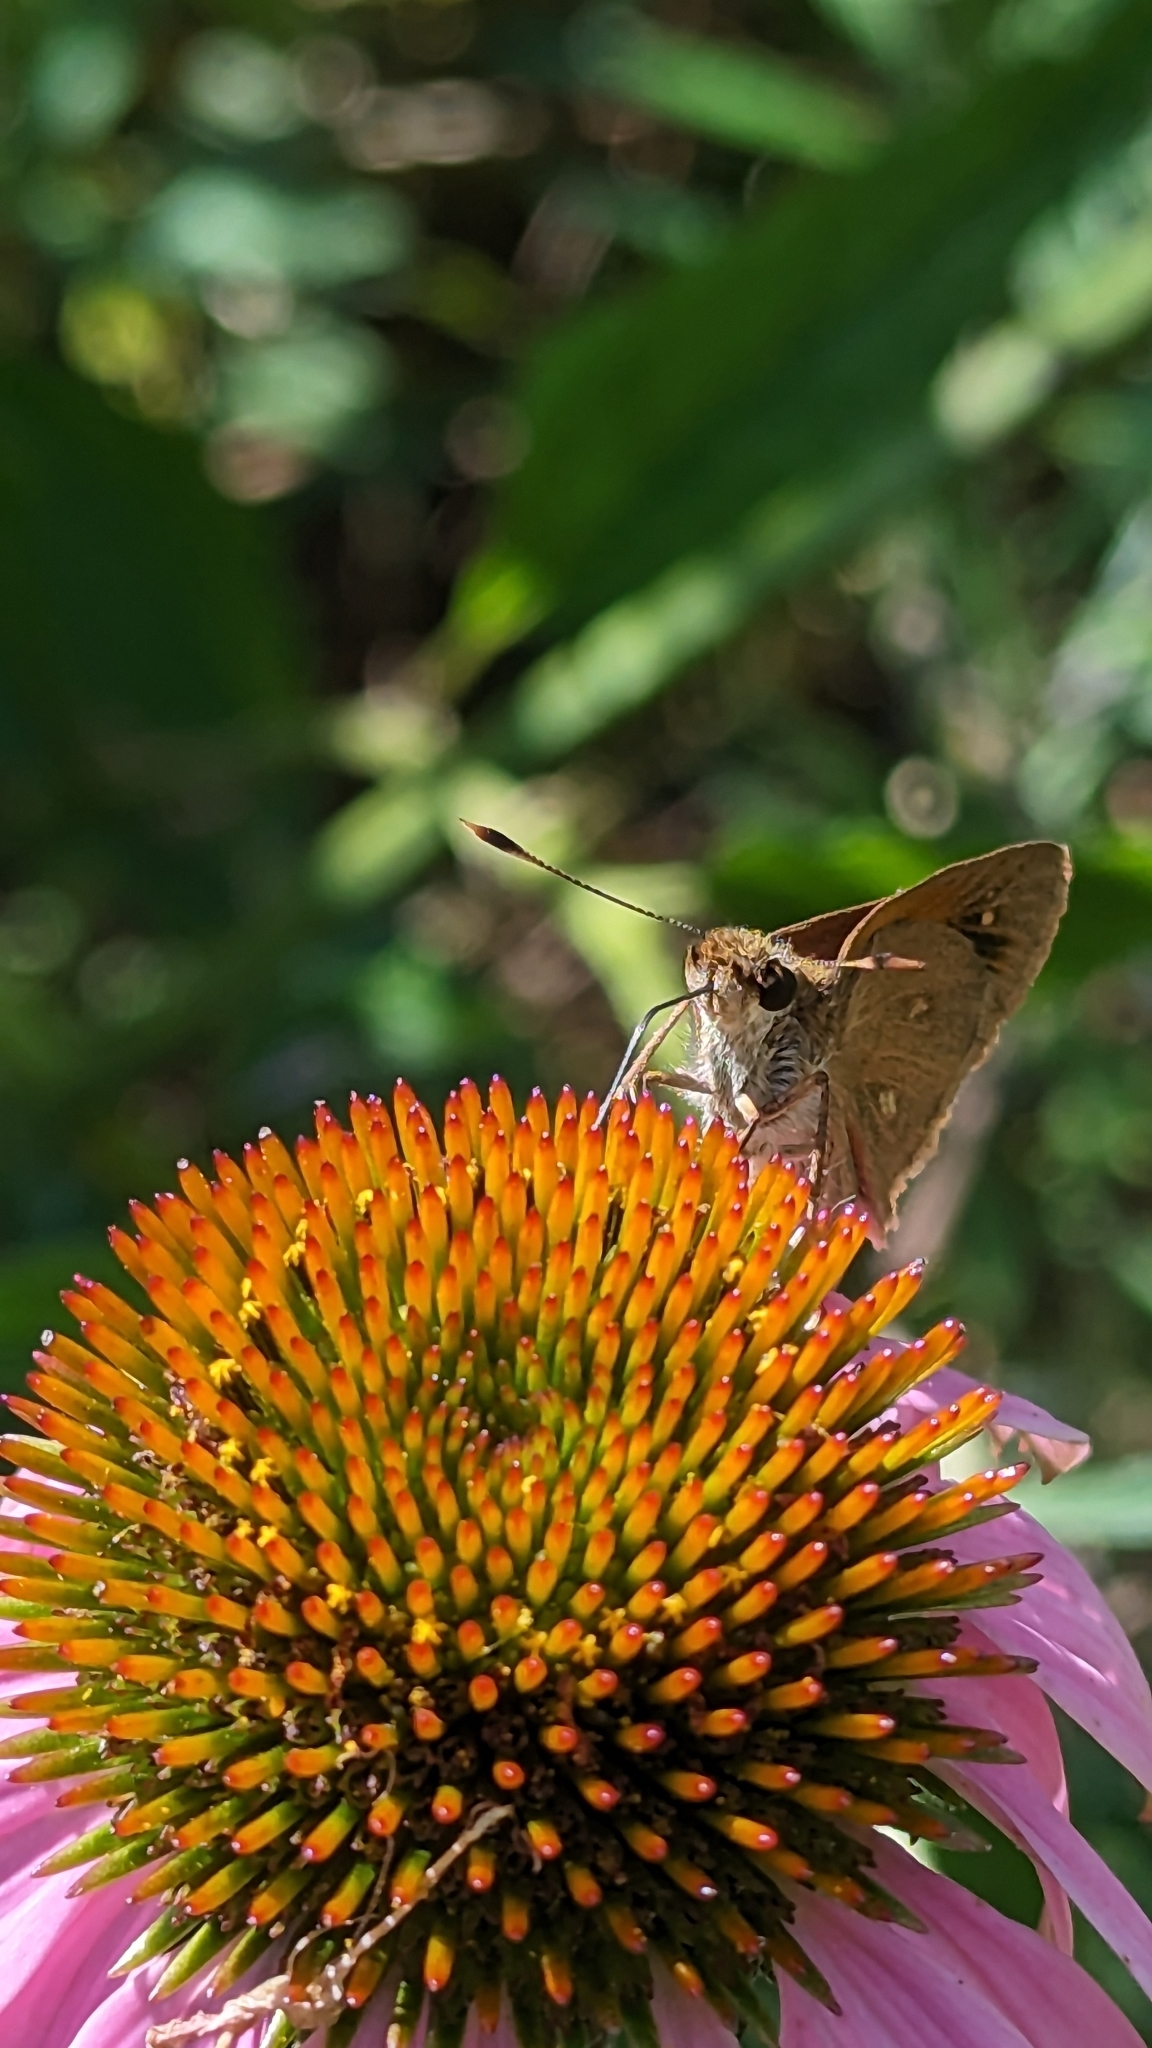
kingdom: Animalia
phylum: Arthropoda
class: Insecta
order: Lepidoptera
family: Hesperiidae
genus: Poanes
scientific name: Poanes viator
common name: Broad-winged skipper
